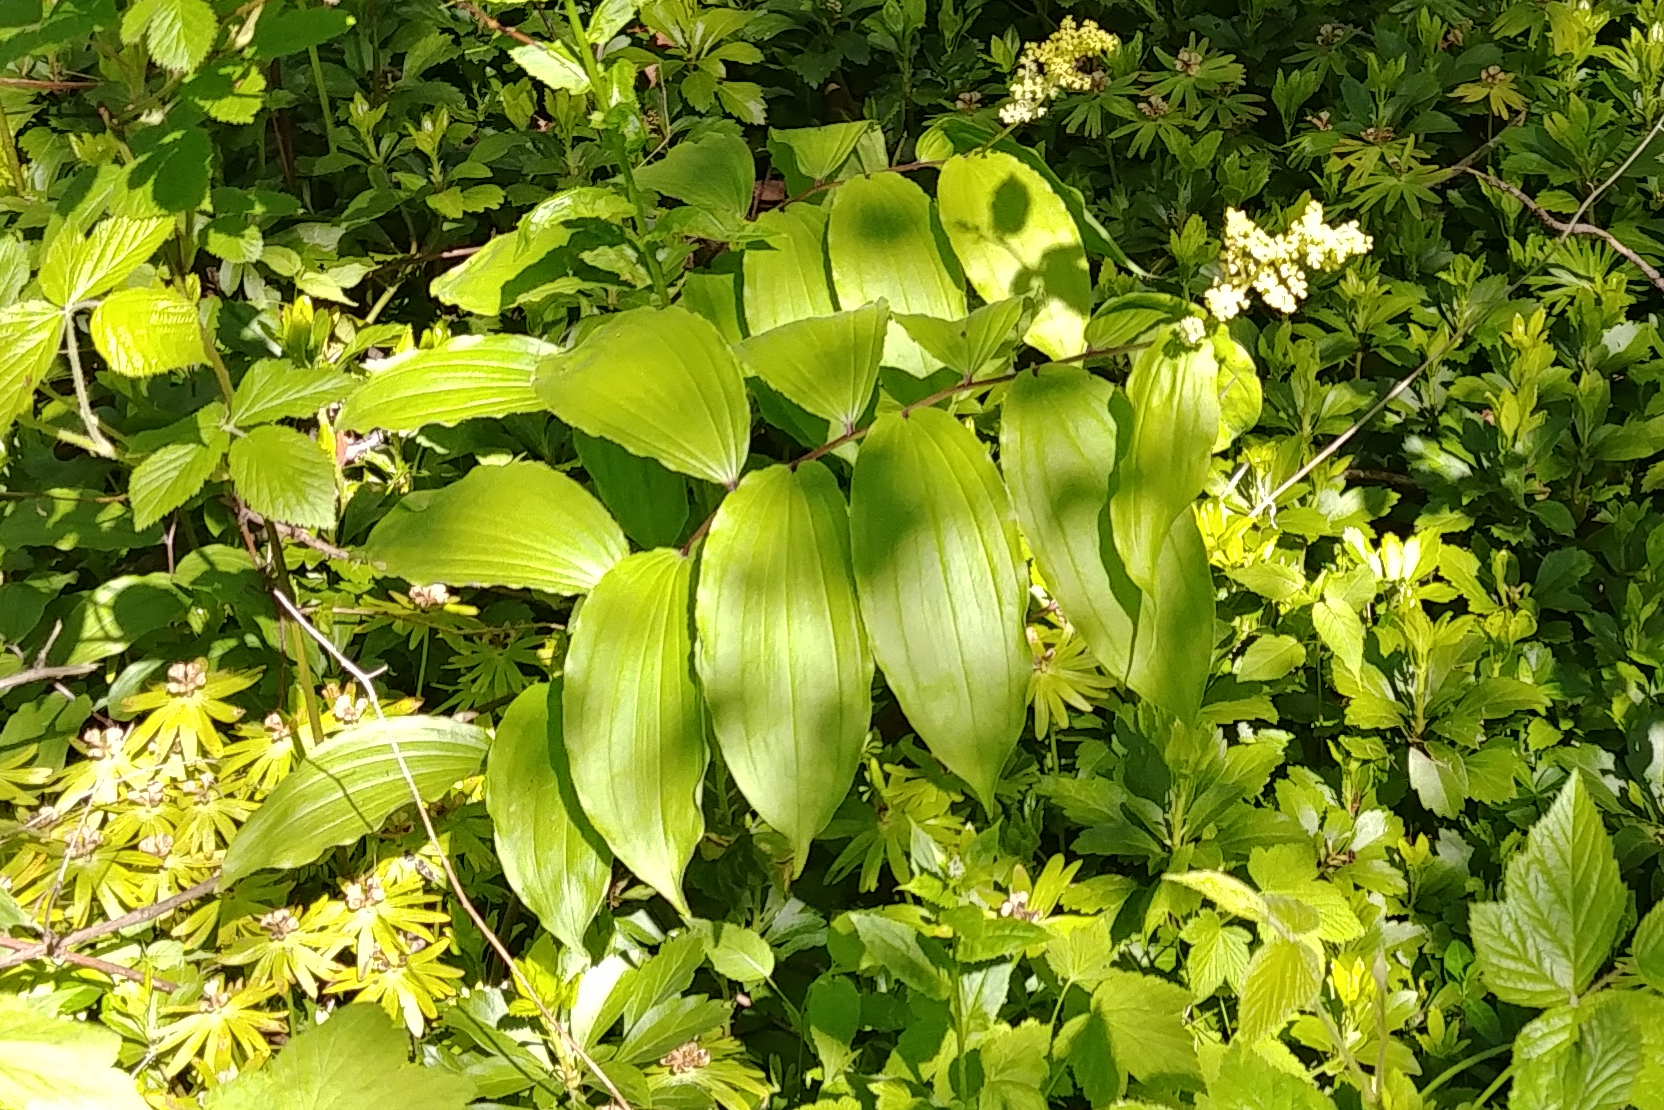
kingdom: Plantae
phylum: Tracheophyta
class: Liliopsida
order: Asparagales
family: Asparagaceae
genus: Maianthemum
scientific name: Maianthemum racemosum
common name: False spikenard
